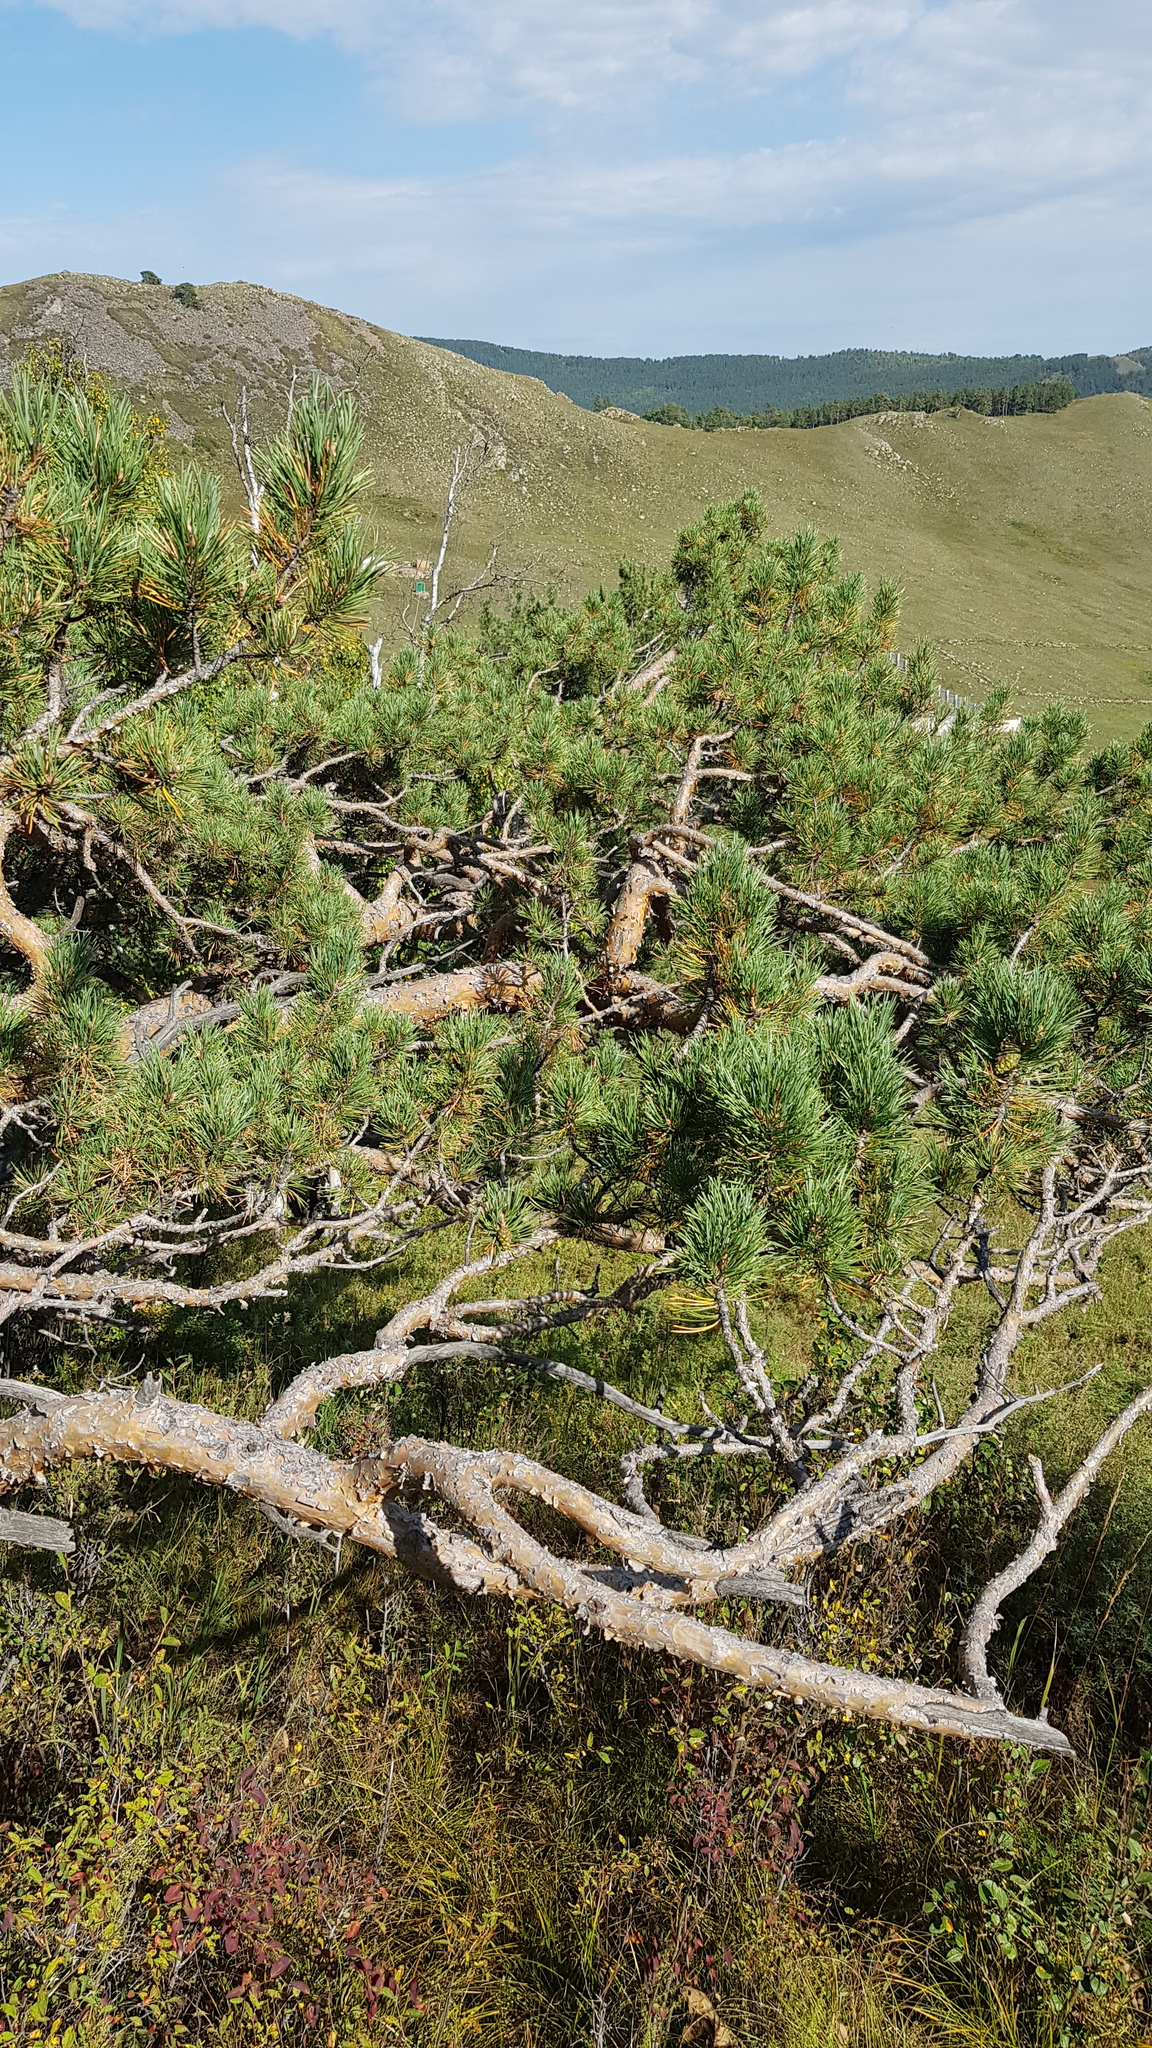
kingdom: Plantae
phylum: Tracheophyta
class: Pinopsida
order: Pinales
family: Pinaceae
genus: Pinus
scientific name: Pinus sylvestris
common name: Scots pine
